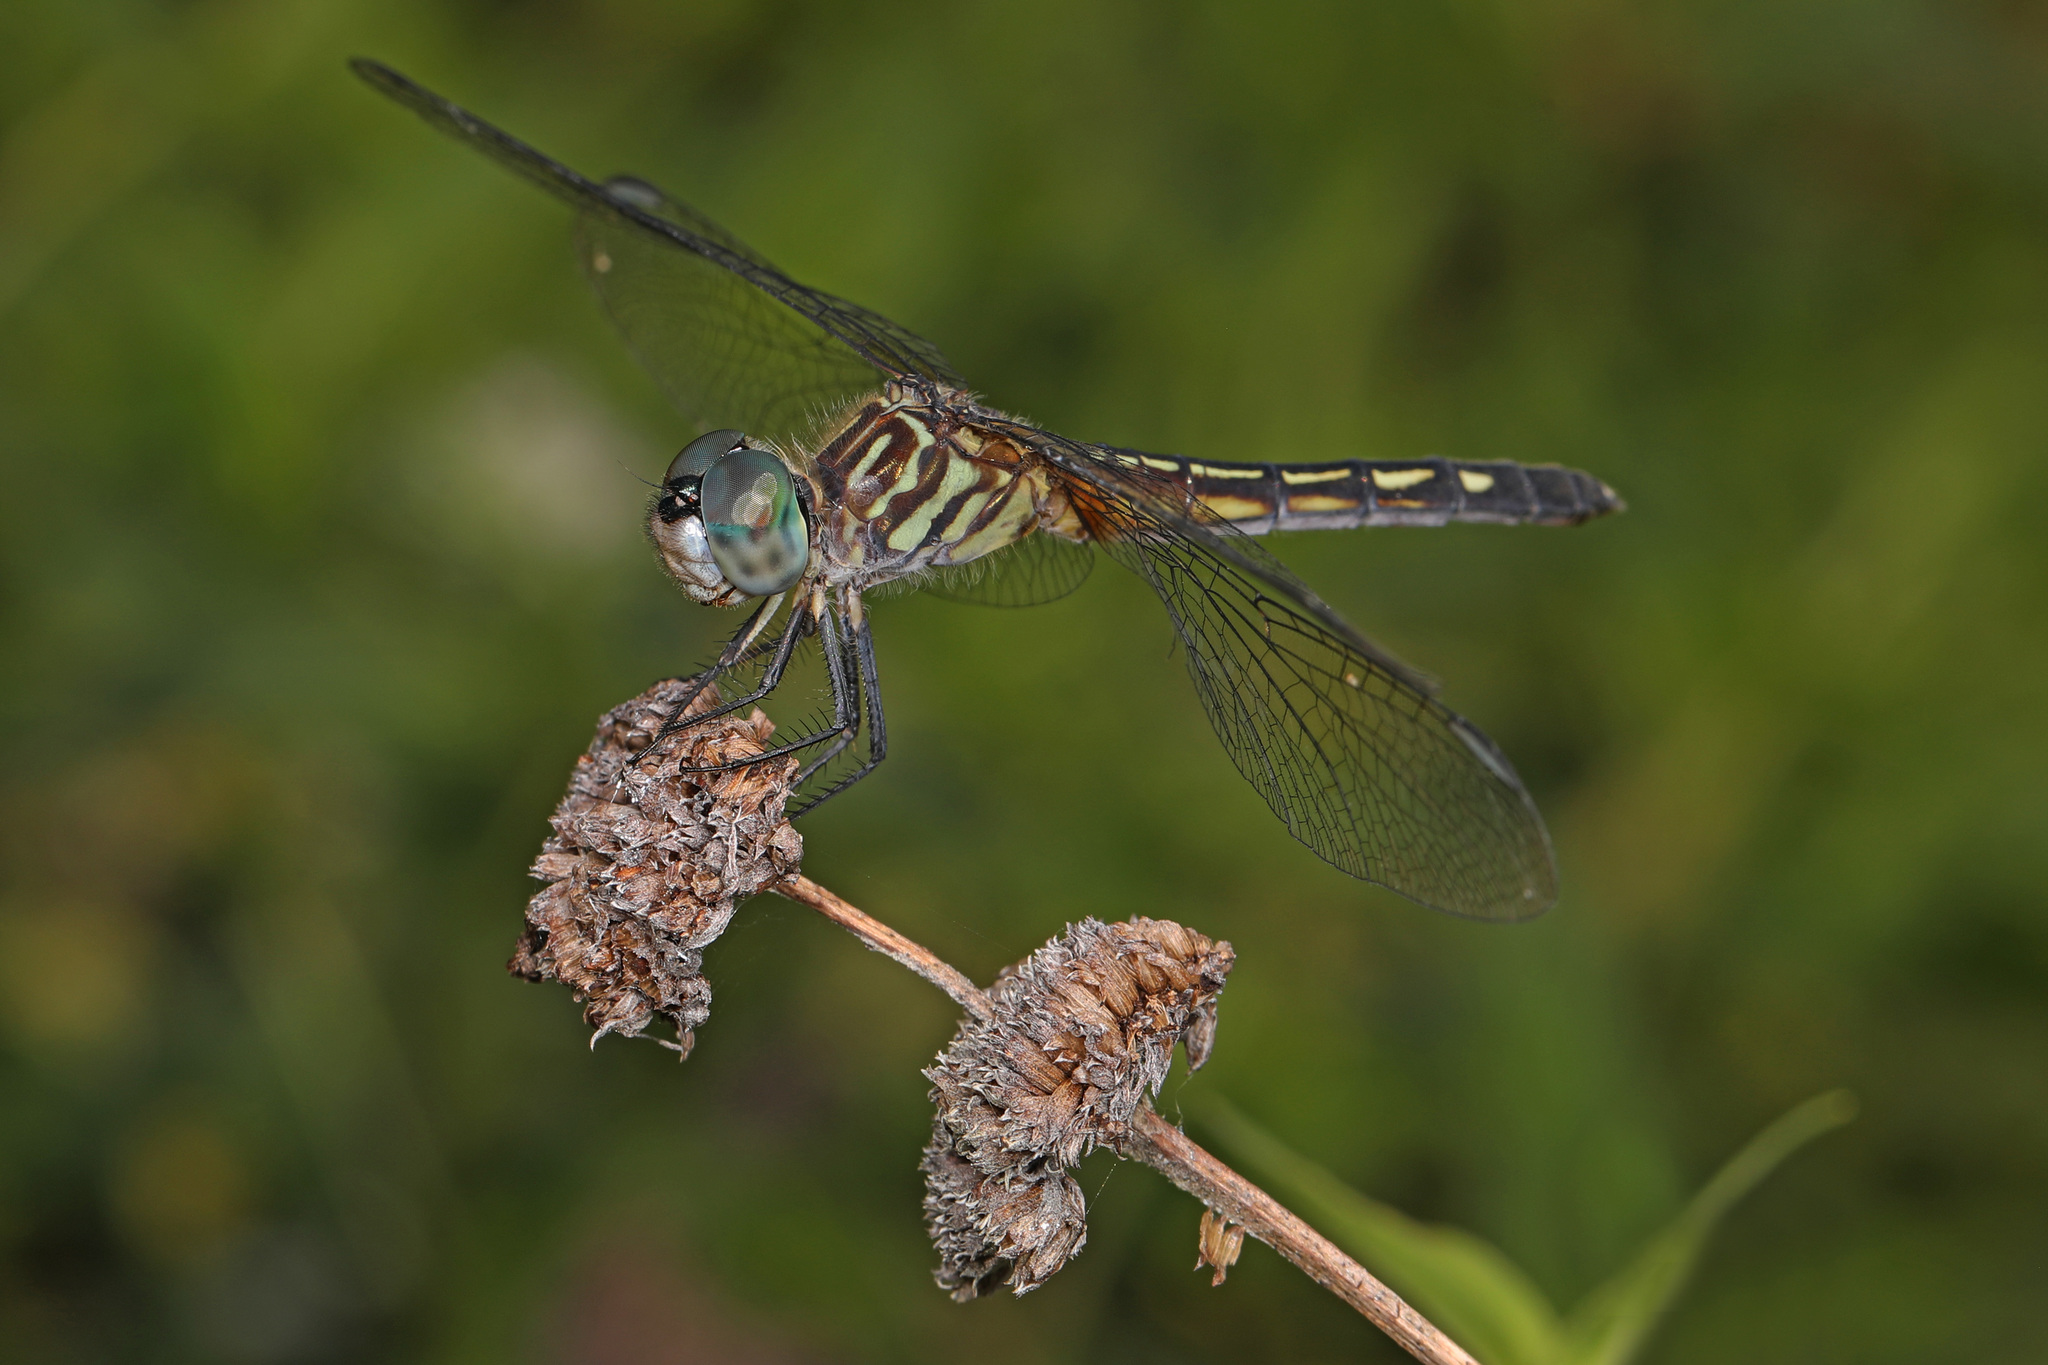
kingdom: Animalia
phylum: Arthropoda
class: Insecta
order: Odonata
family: Libellulidae
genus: Pachydiplax
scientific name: Pachydiplax longipennis
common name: Blue dasher
